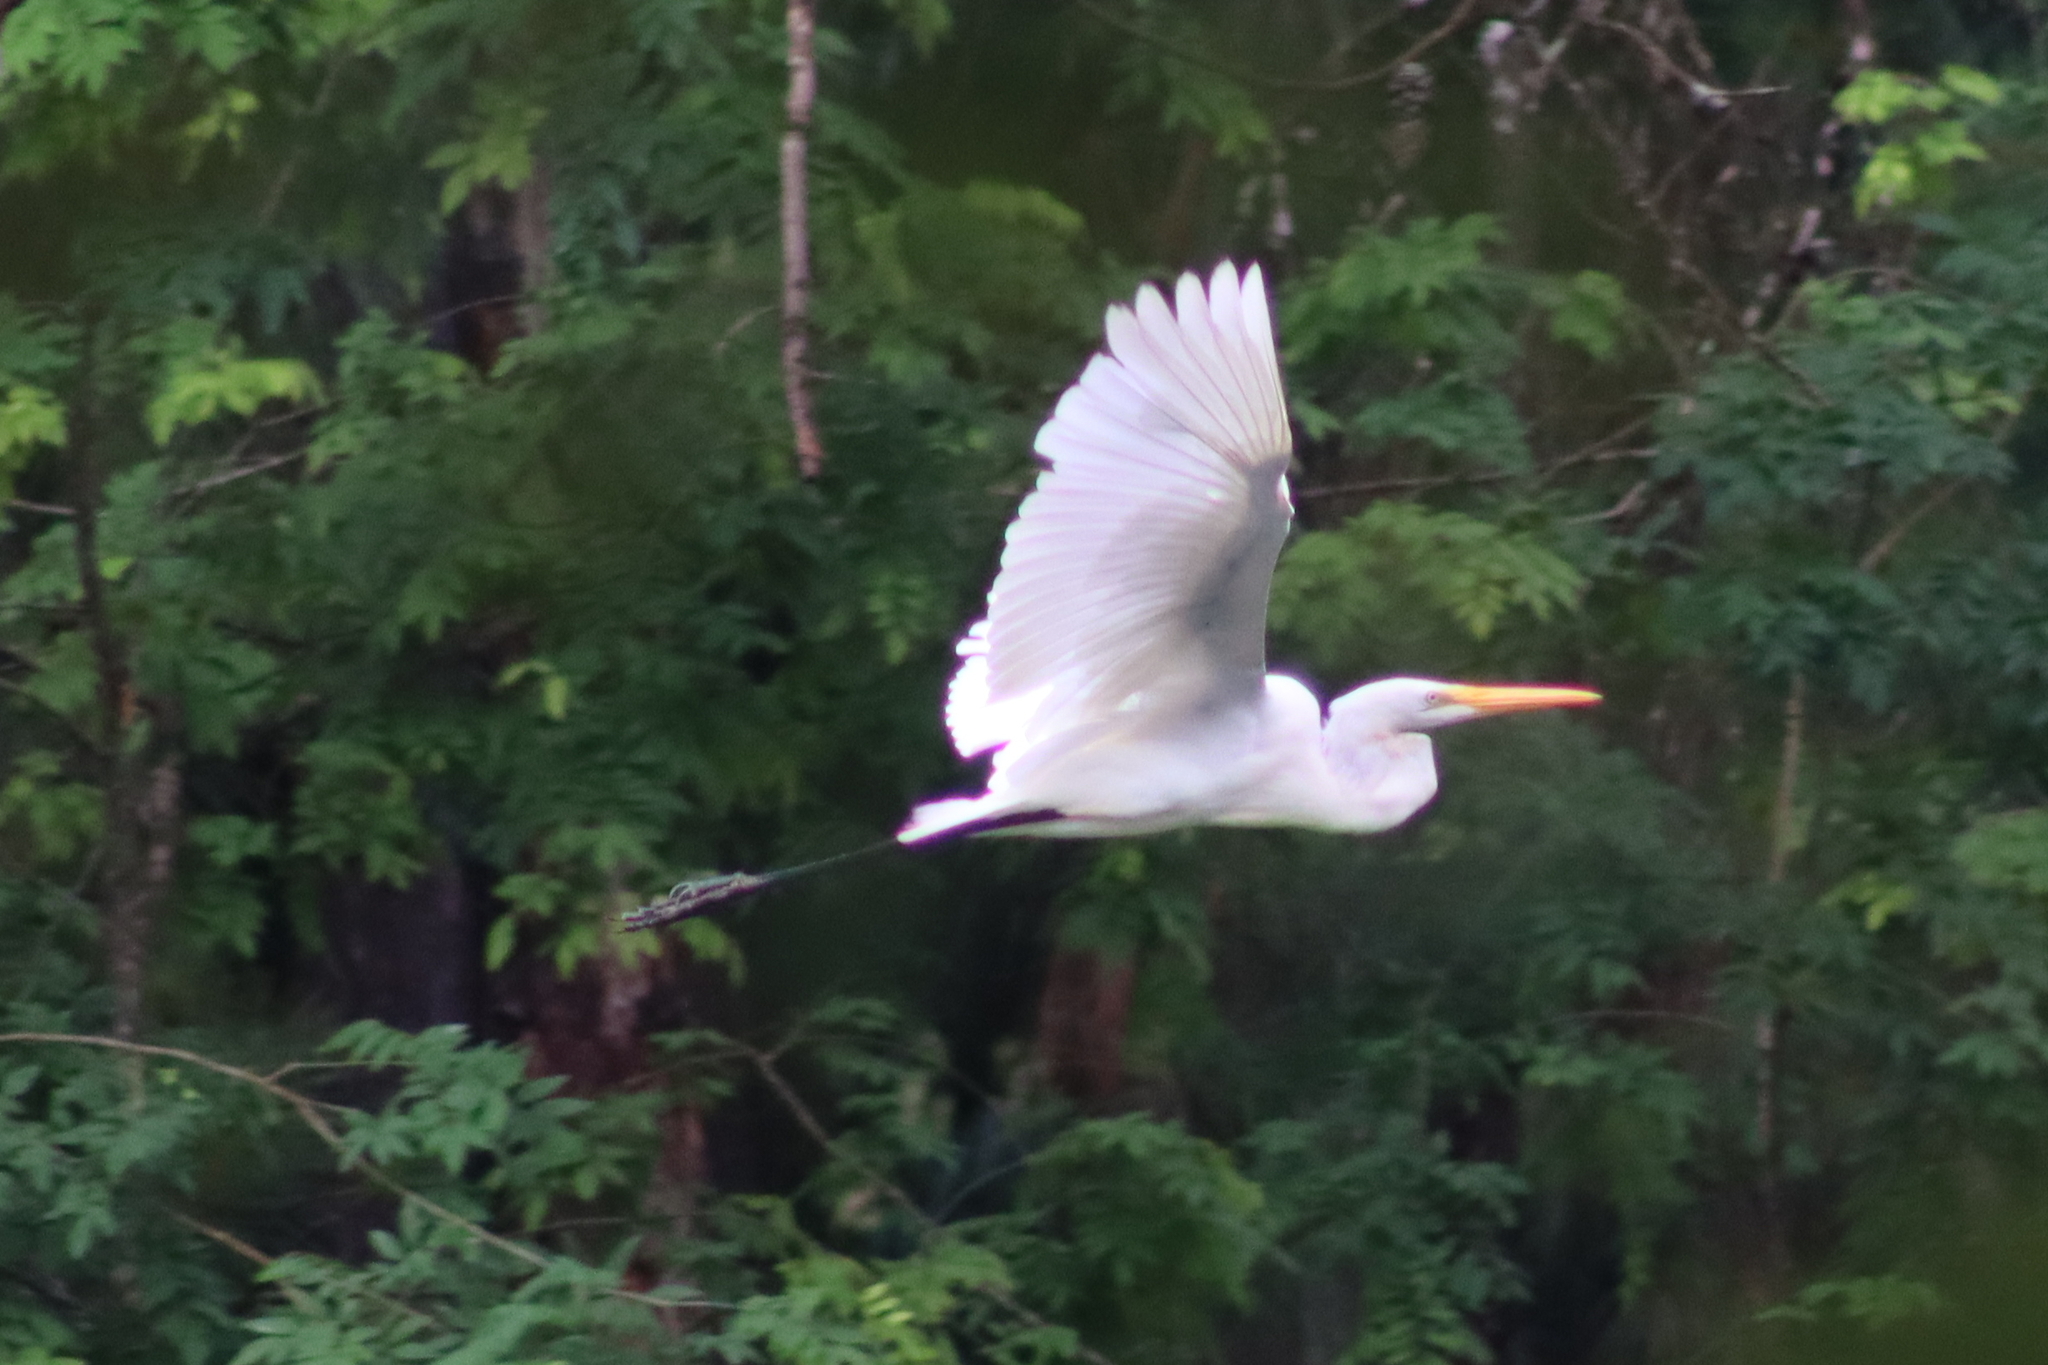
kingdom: Animalia
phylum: Chordata
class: Aves
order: Pelecaniformes
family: Ardeidae
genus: Ardea
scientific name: Ardea alba
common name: Great egret
